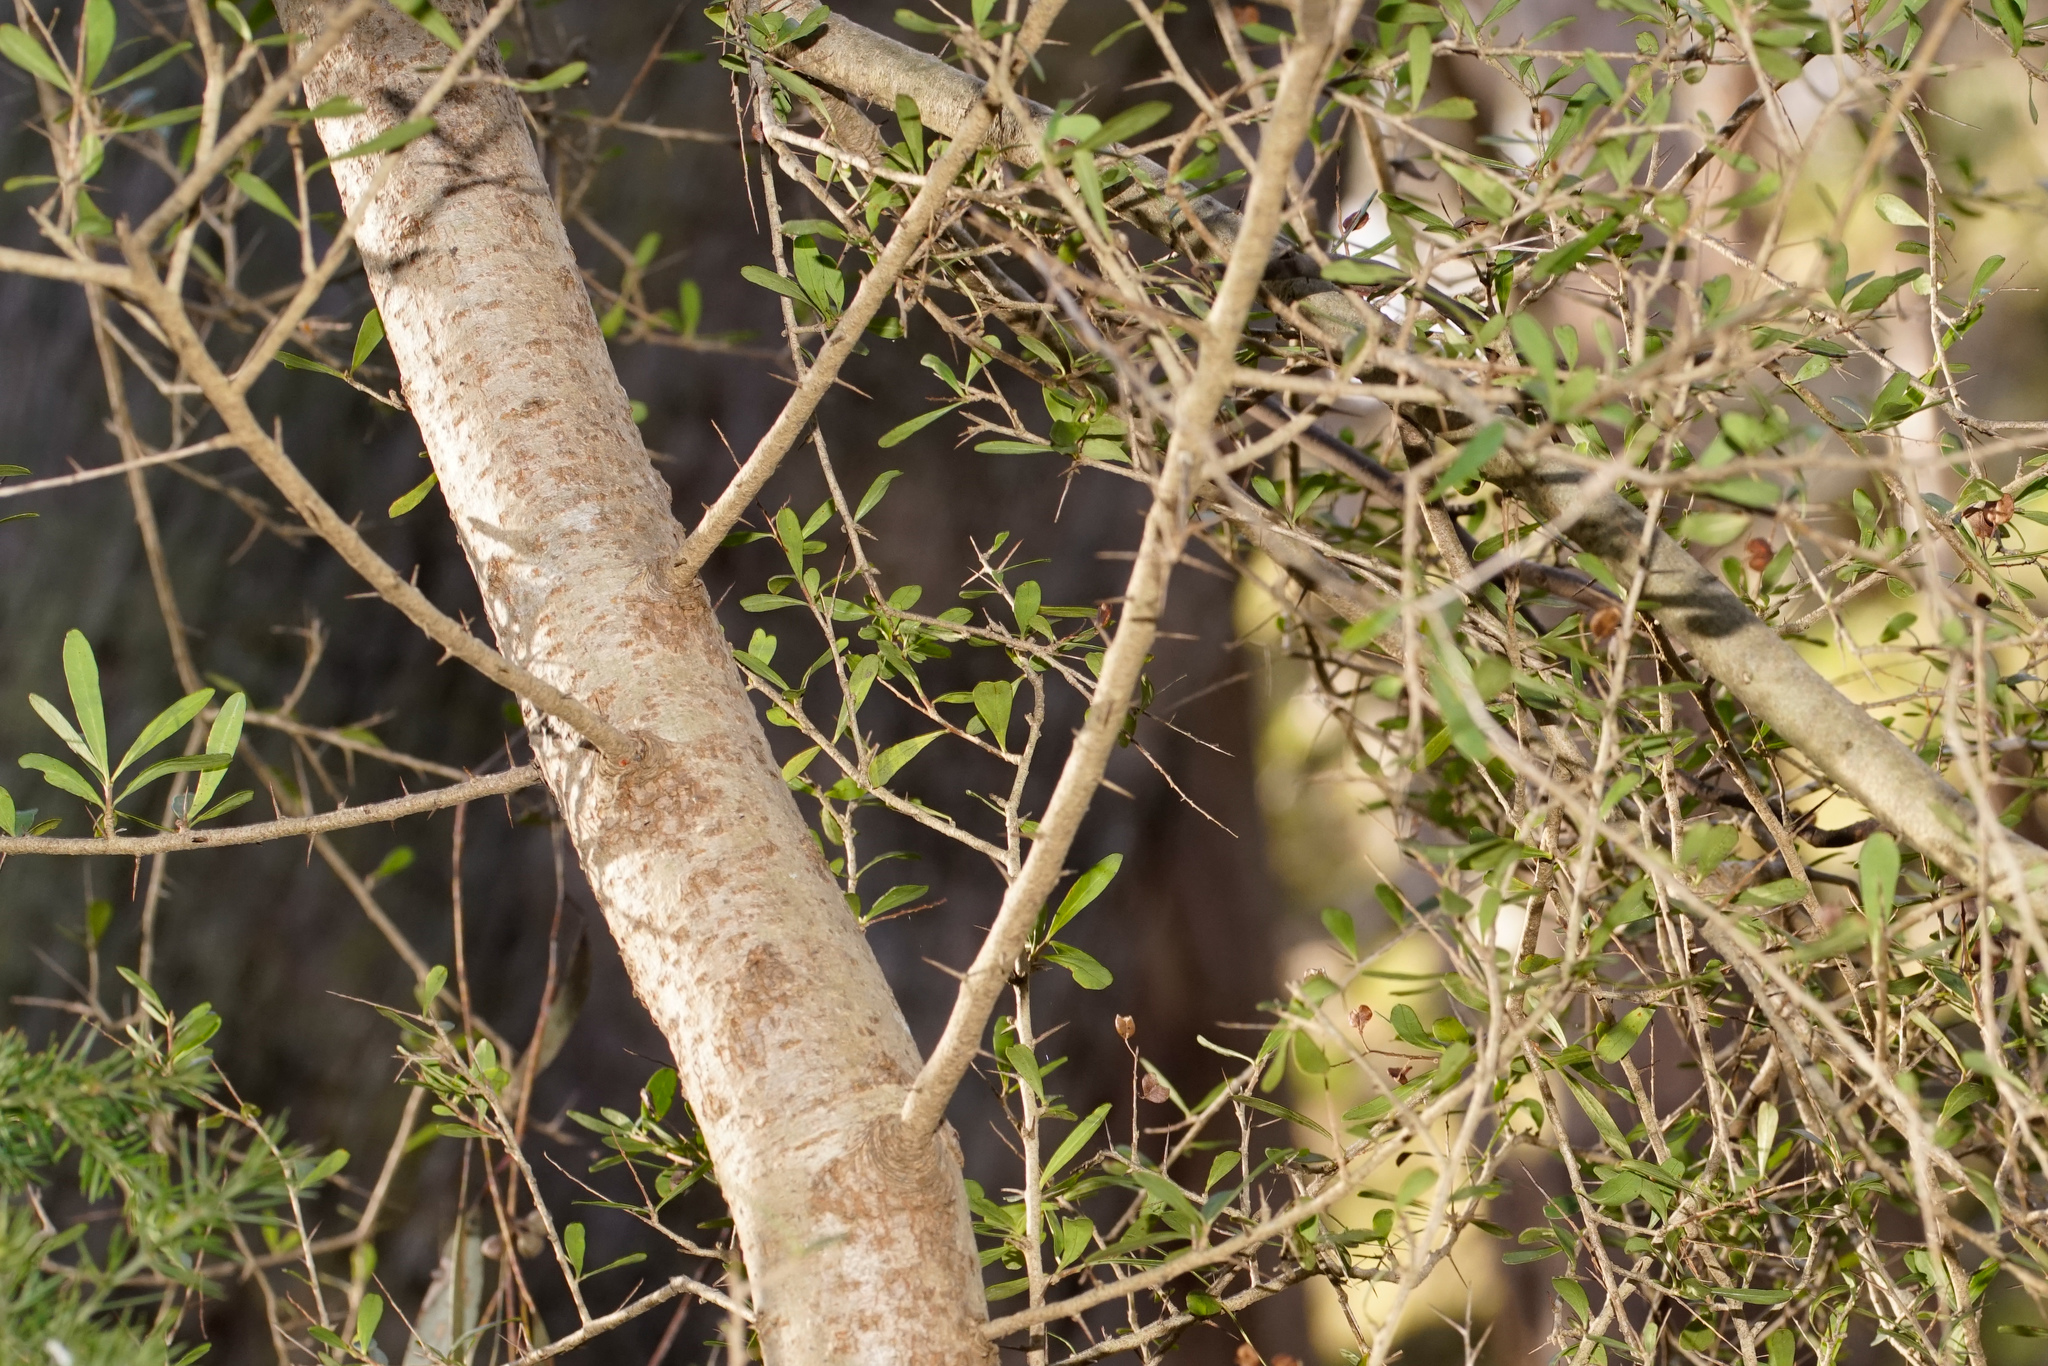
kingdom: Plantae
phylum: Tracheophyta
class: Magnoliopsida
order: Apiales
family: Pittosporaceae
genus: Bursaria
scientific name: Bursaria spinosa
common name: Australian blackthorn
